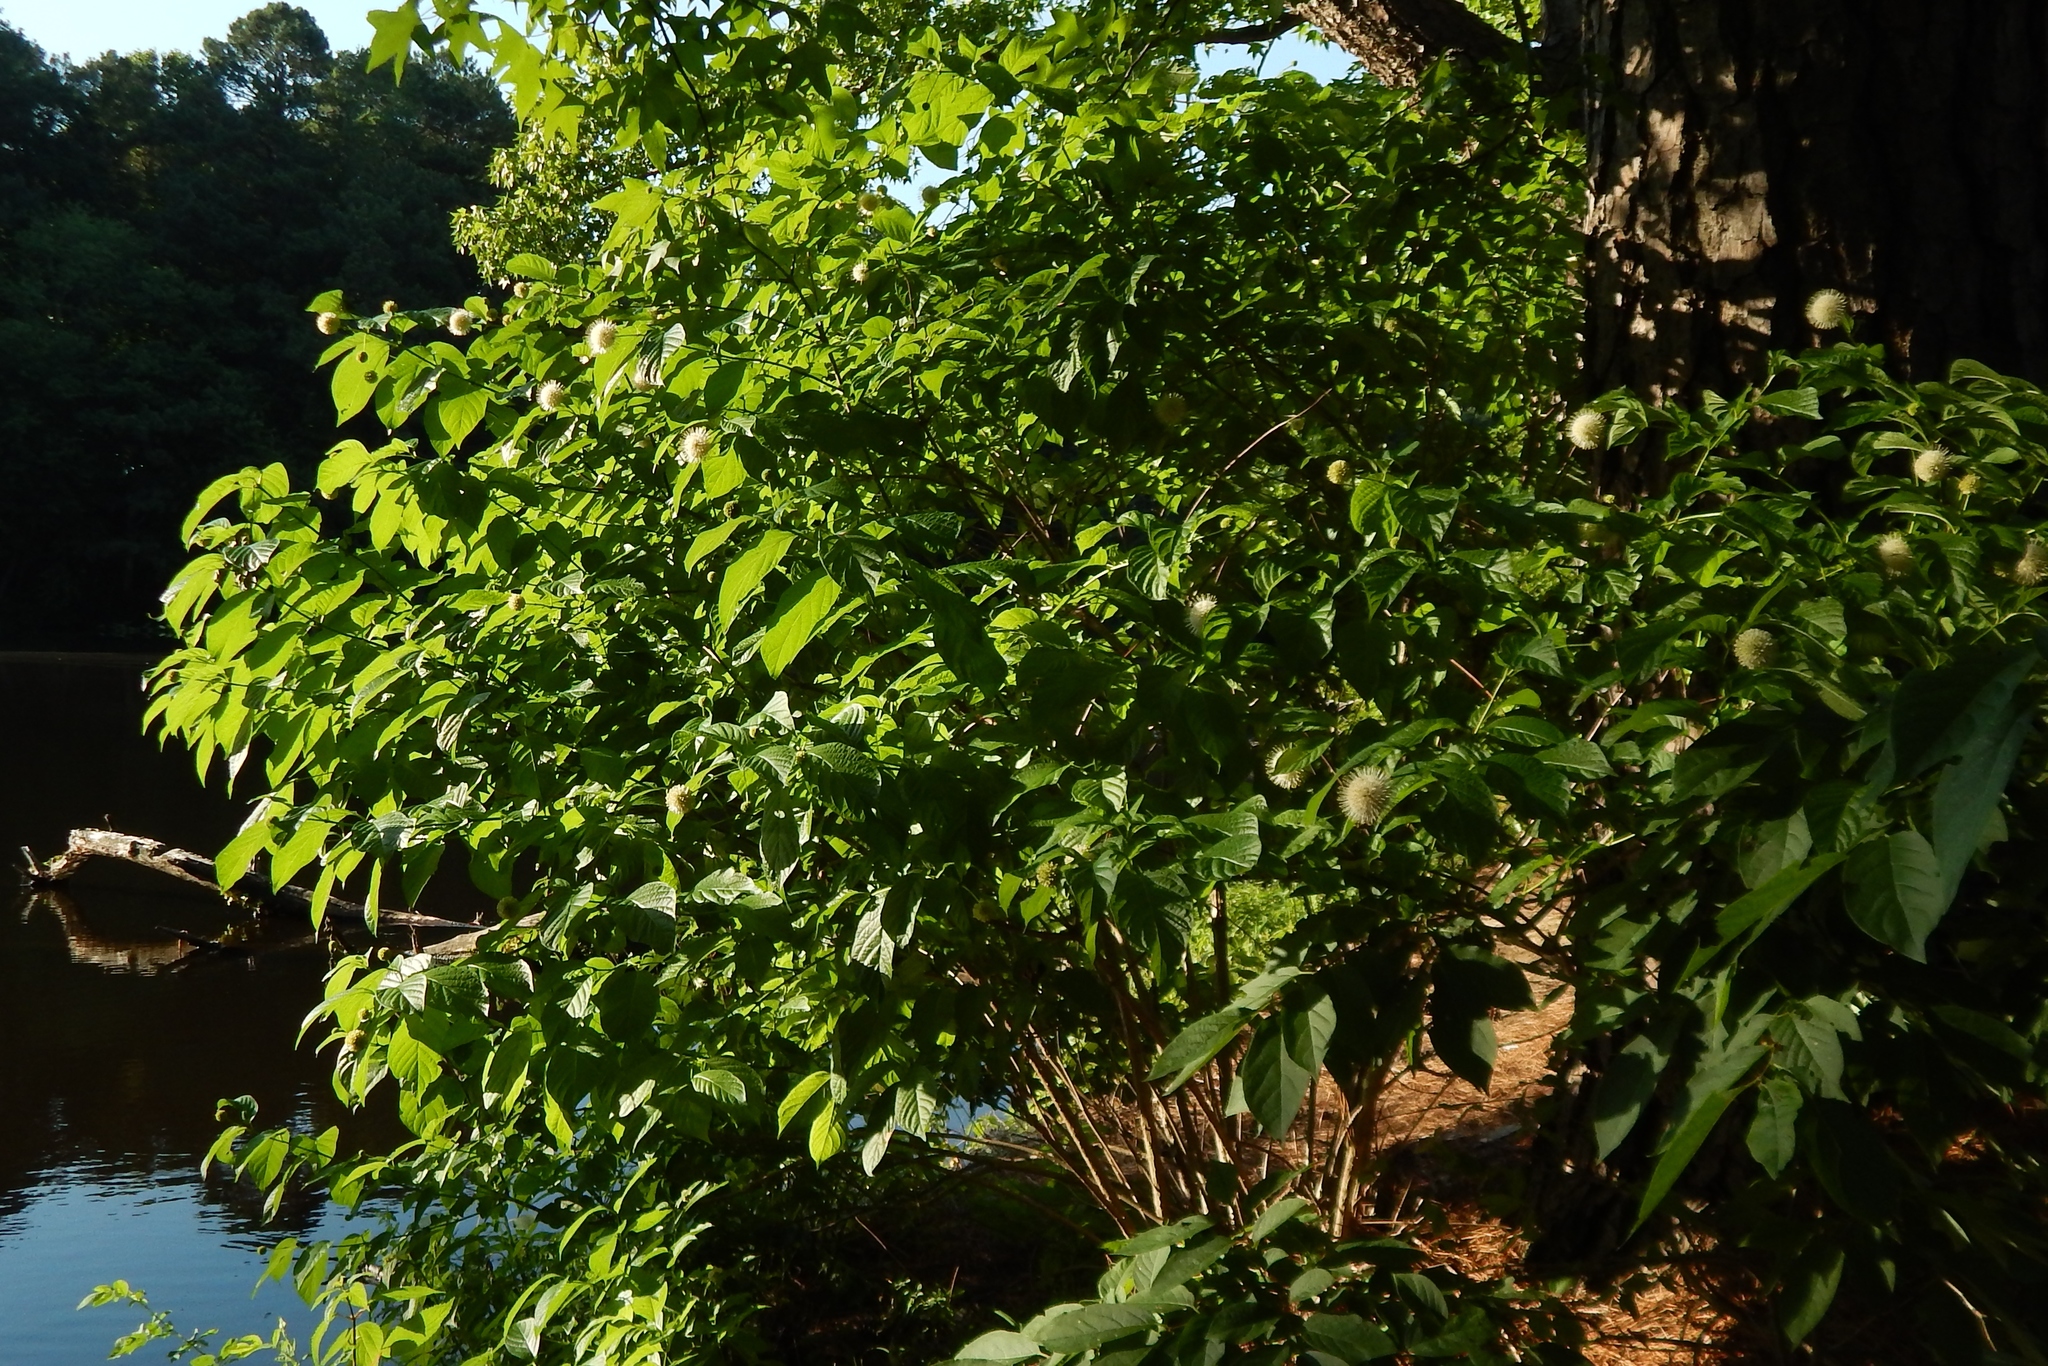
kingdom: Plantae
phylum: Tracheophyta
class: Magnoliopsida
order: Gentianales
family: Rubiaceae
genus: Cephalanthus
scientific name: Cephalanthus occidentalis
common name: Button-willow
